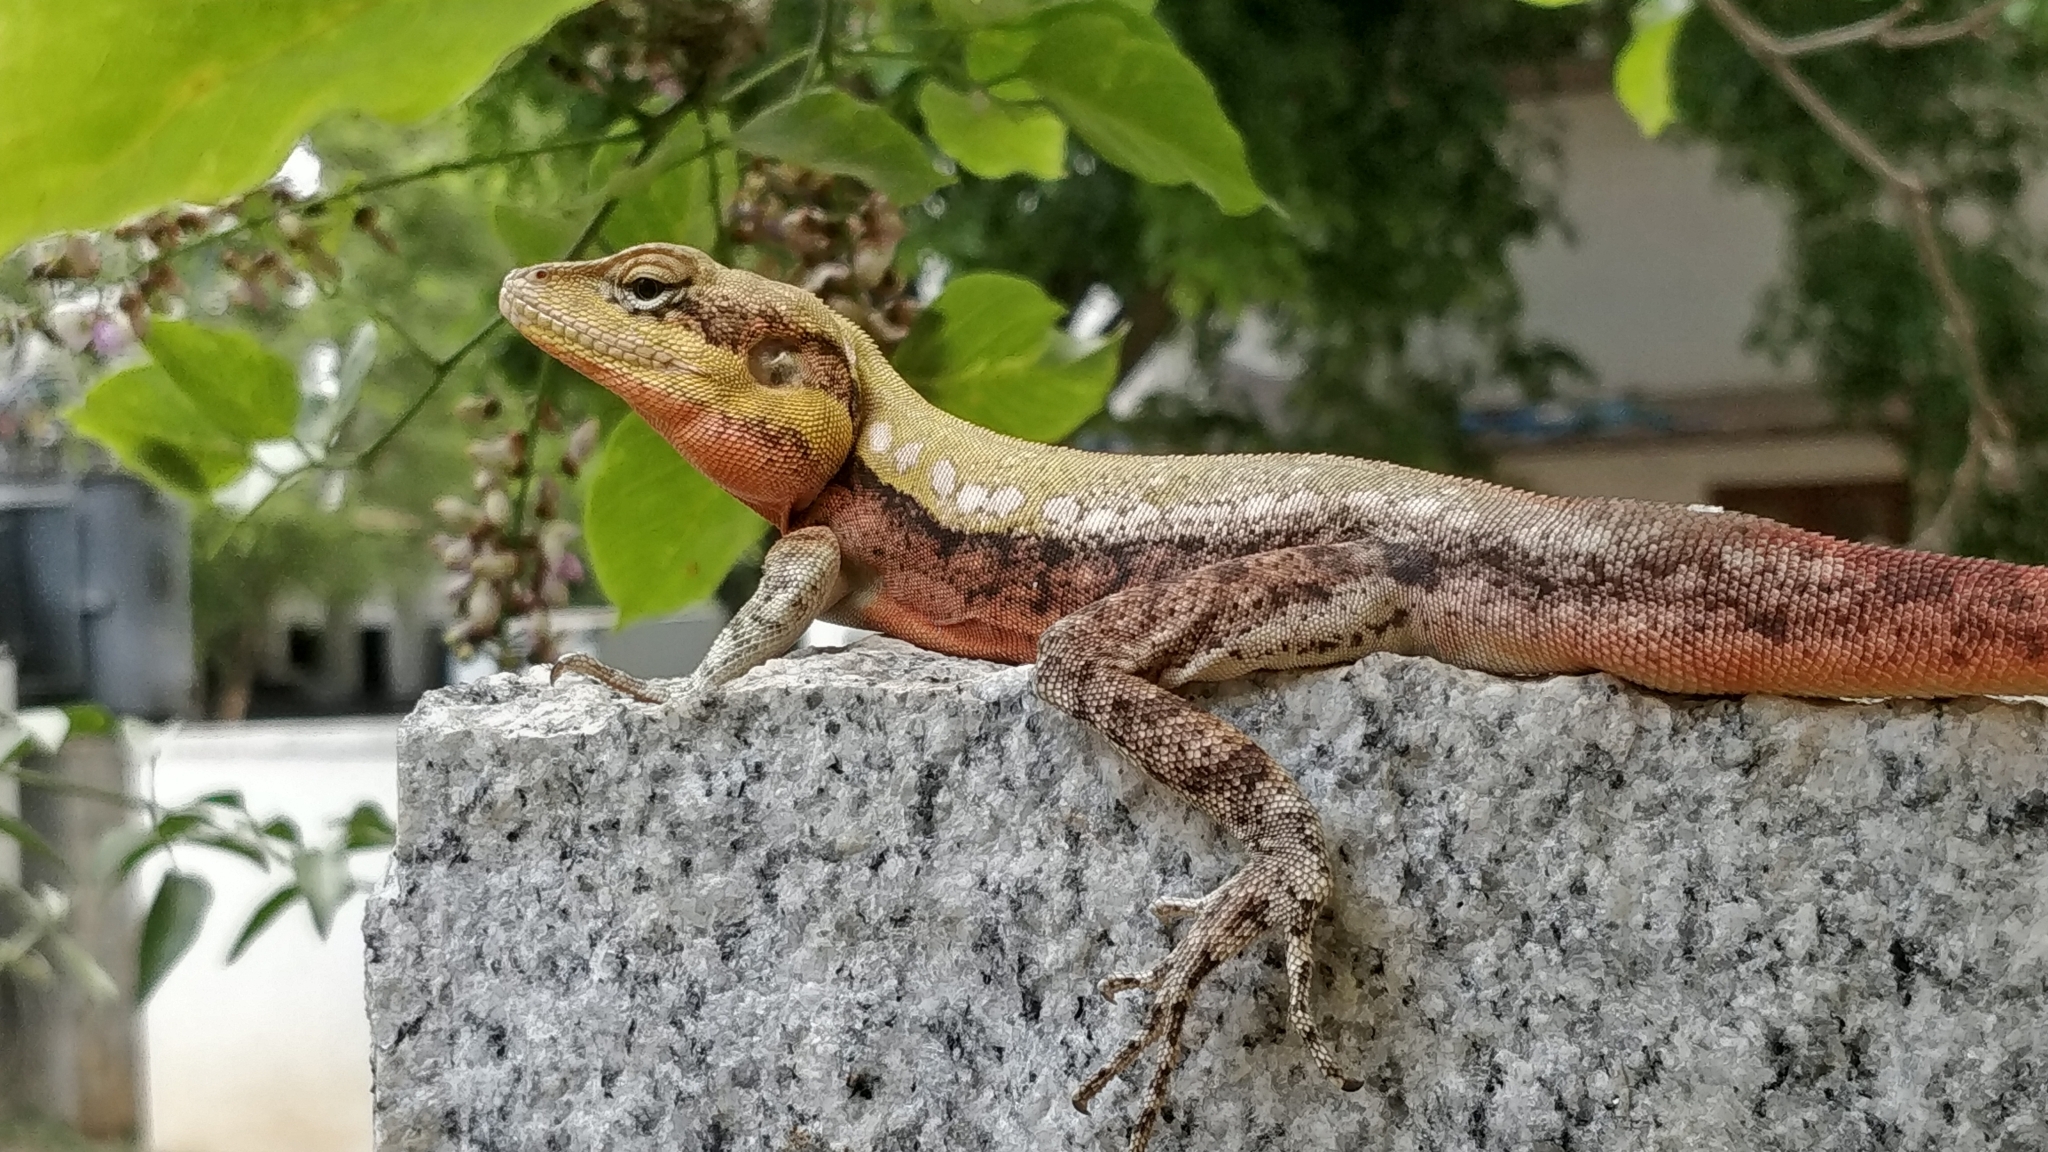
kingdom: Animalia
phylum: Chordata
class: Squamata
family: Agamidae
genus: Psammophilus
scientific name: Psammophilus dorsalis
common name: South indian rock agama
